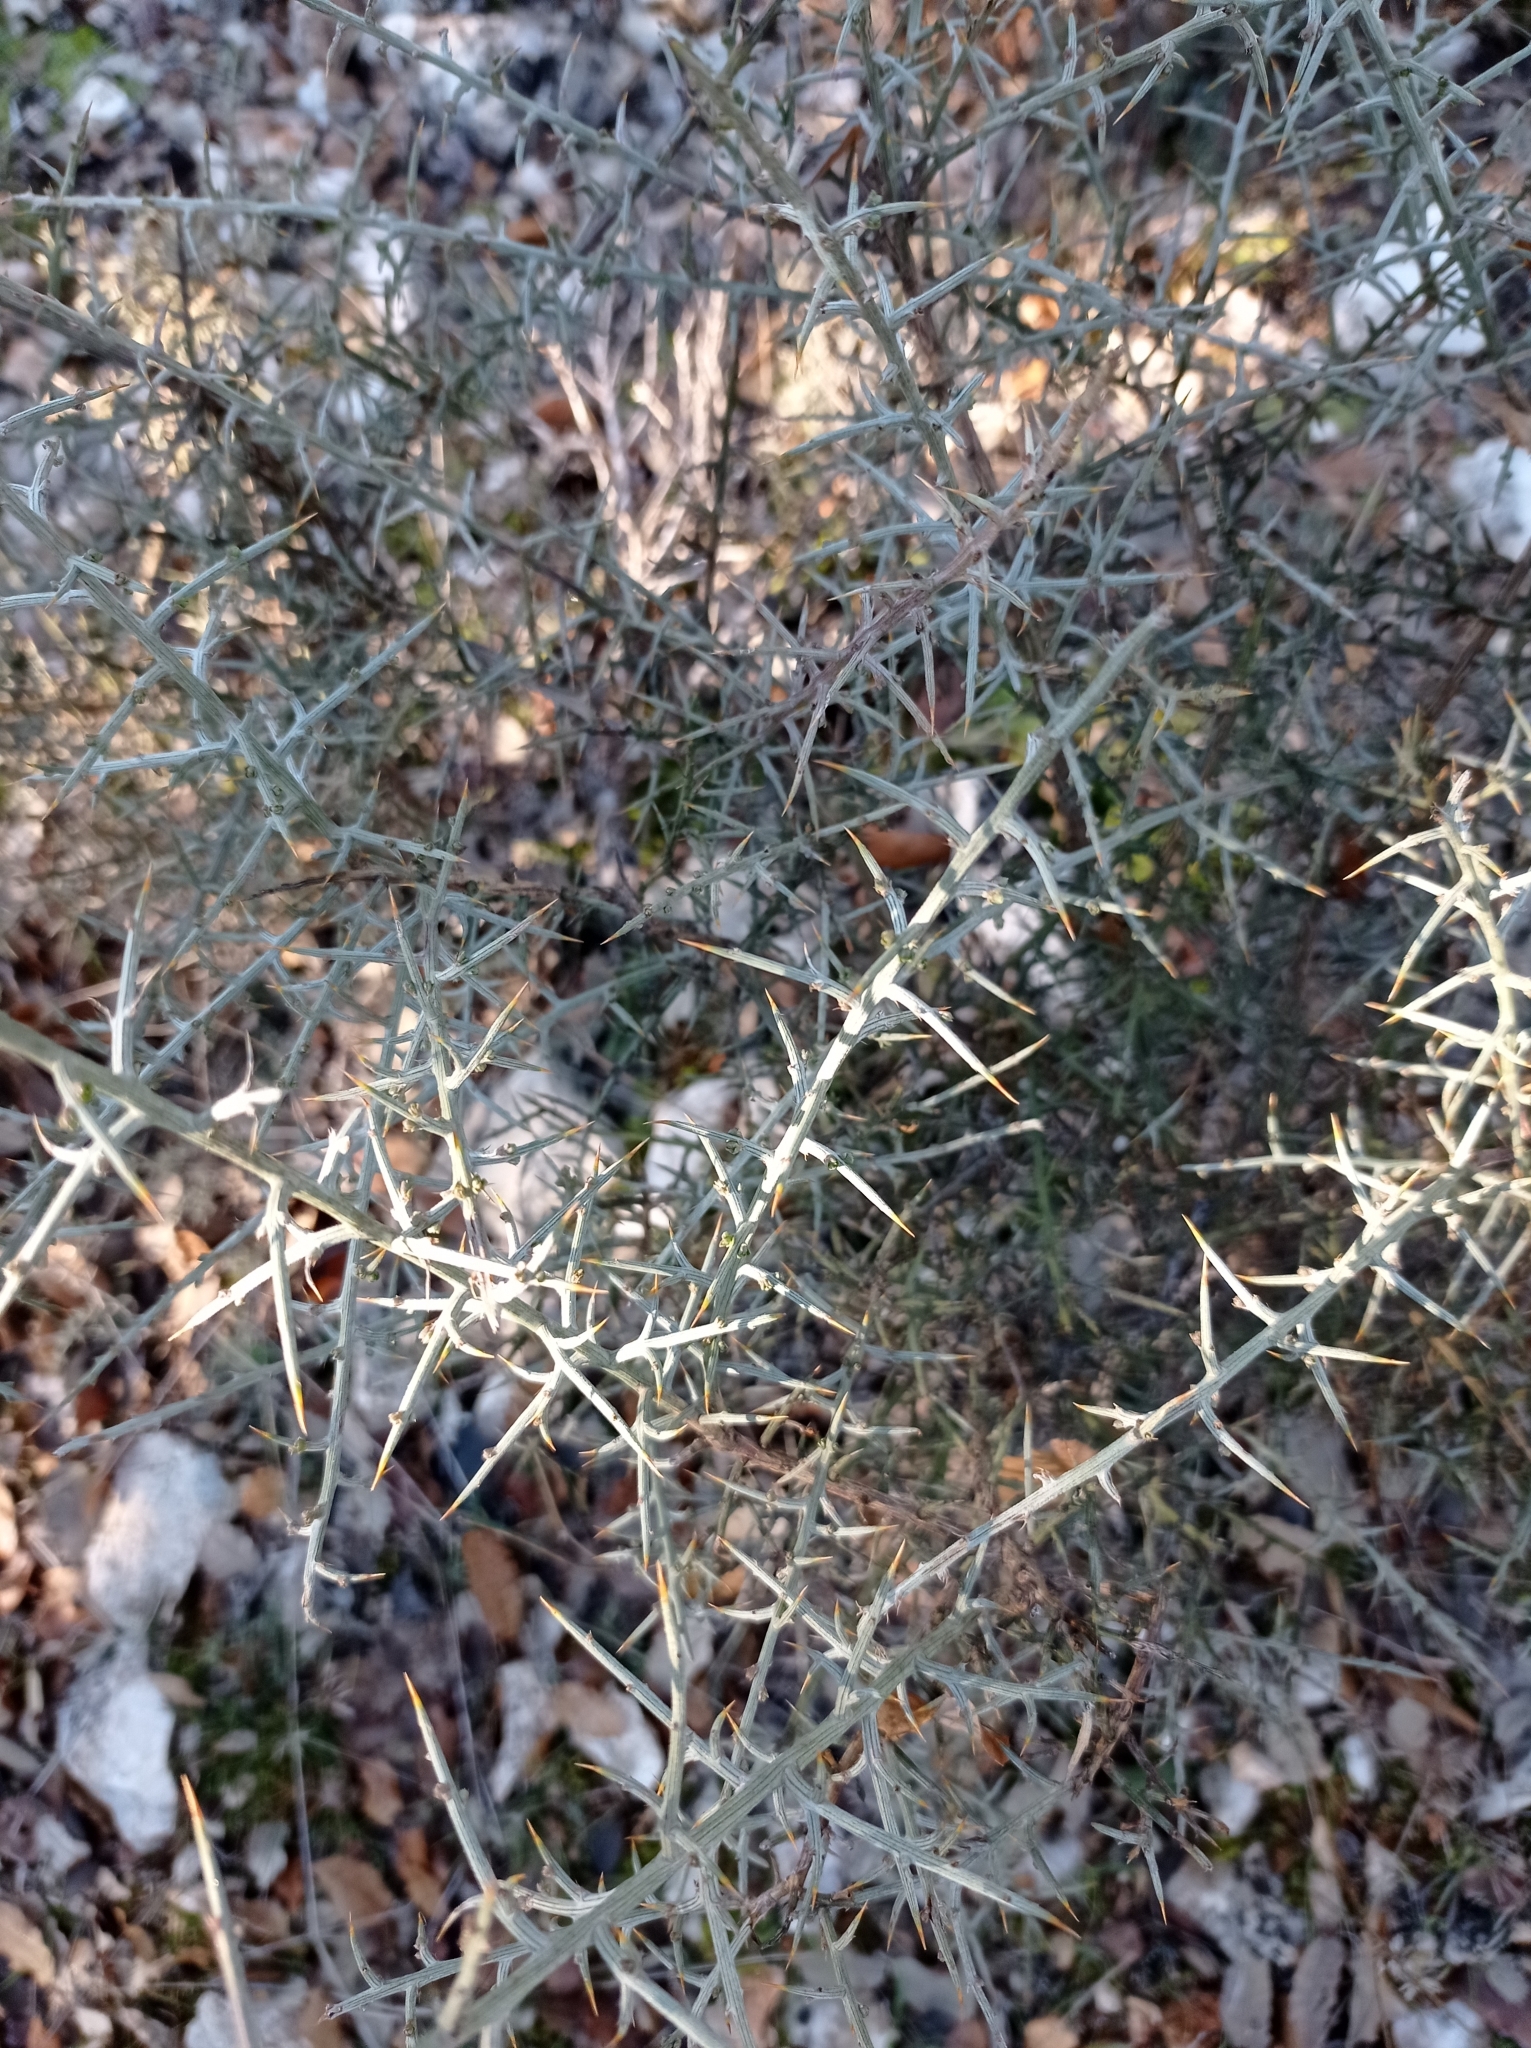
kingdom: Plantae
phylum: Tracheophyta
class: Magnoliopsida
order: Fabales
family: Fabaceae
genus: Genista
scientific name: Genista scorpius
